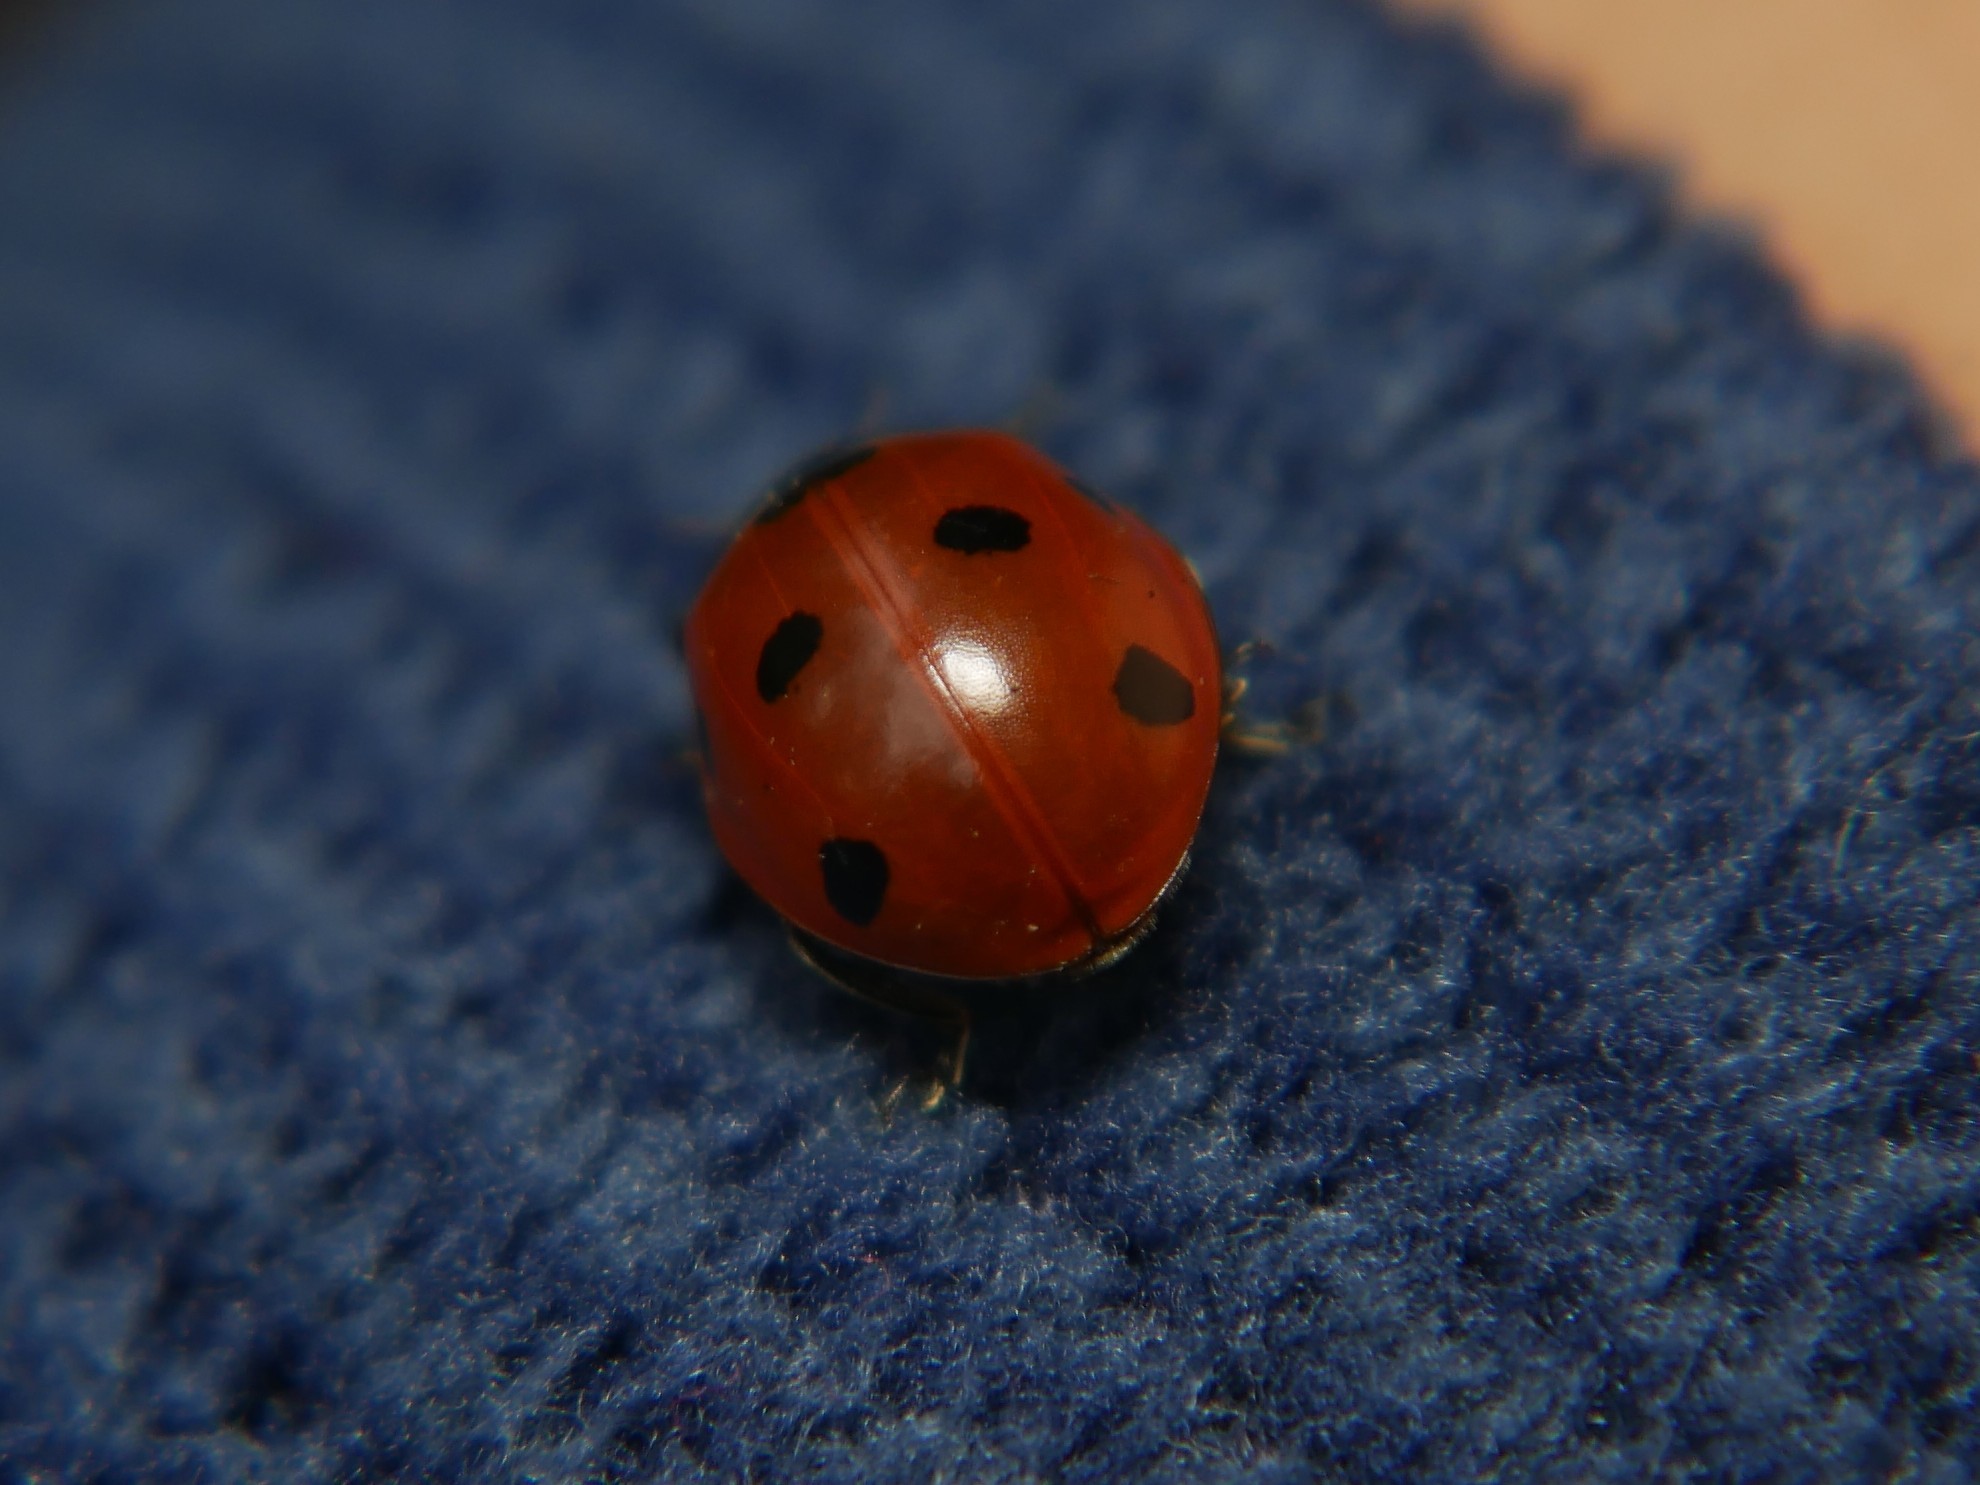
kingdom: Animalia
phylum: Arthropoda
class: Insecta
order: Coleoptera
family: Coccinellidae
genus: Coccinella
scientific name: Coccinella septempunctata
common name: Sevenspotted lady beetle
